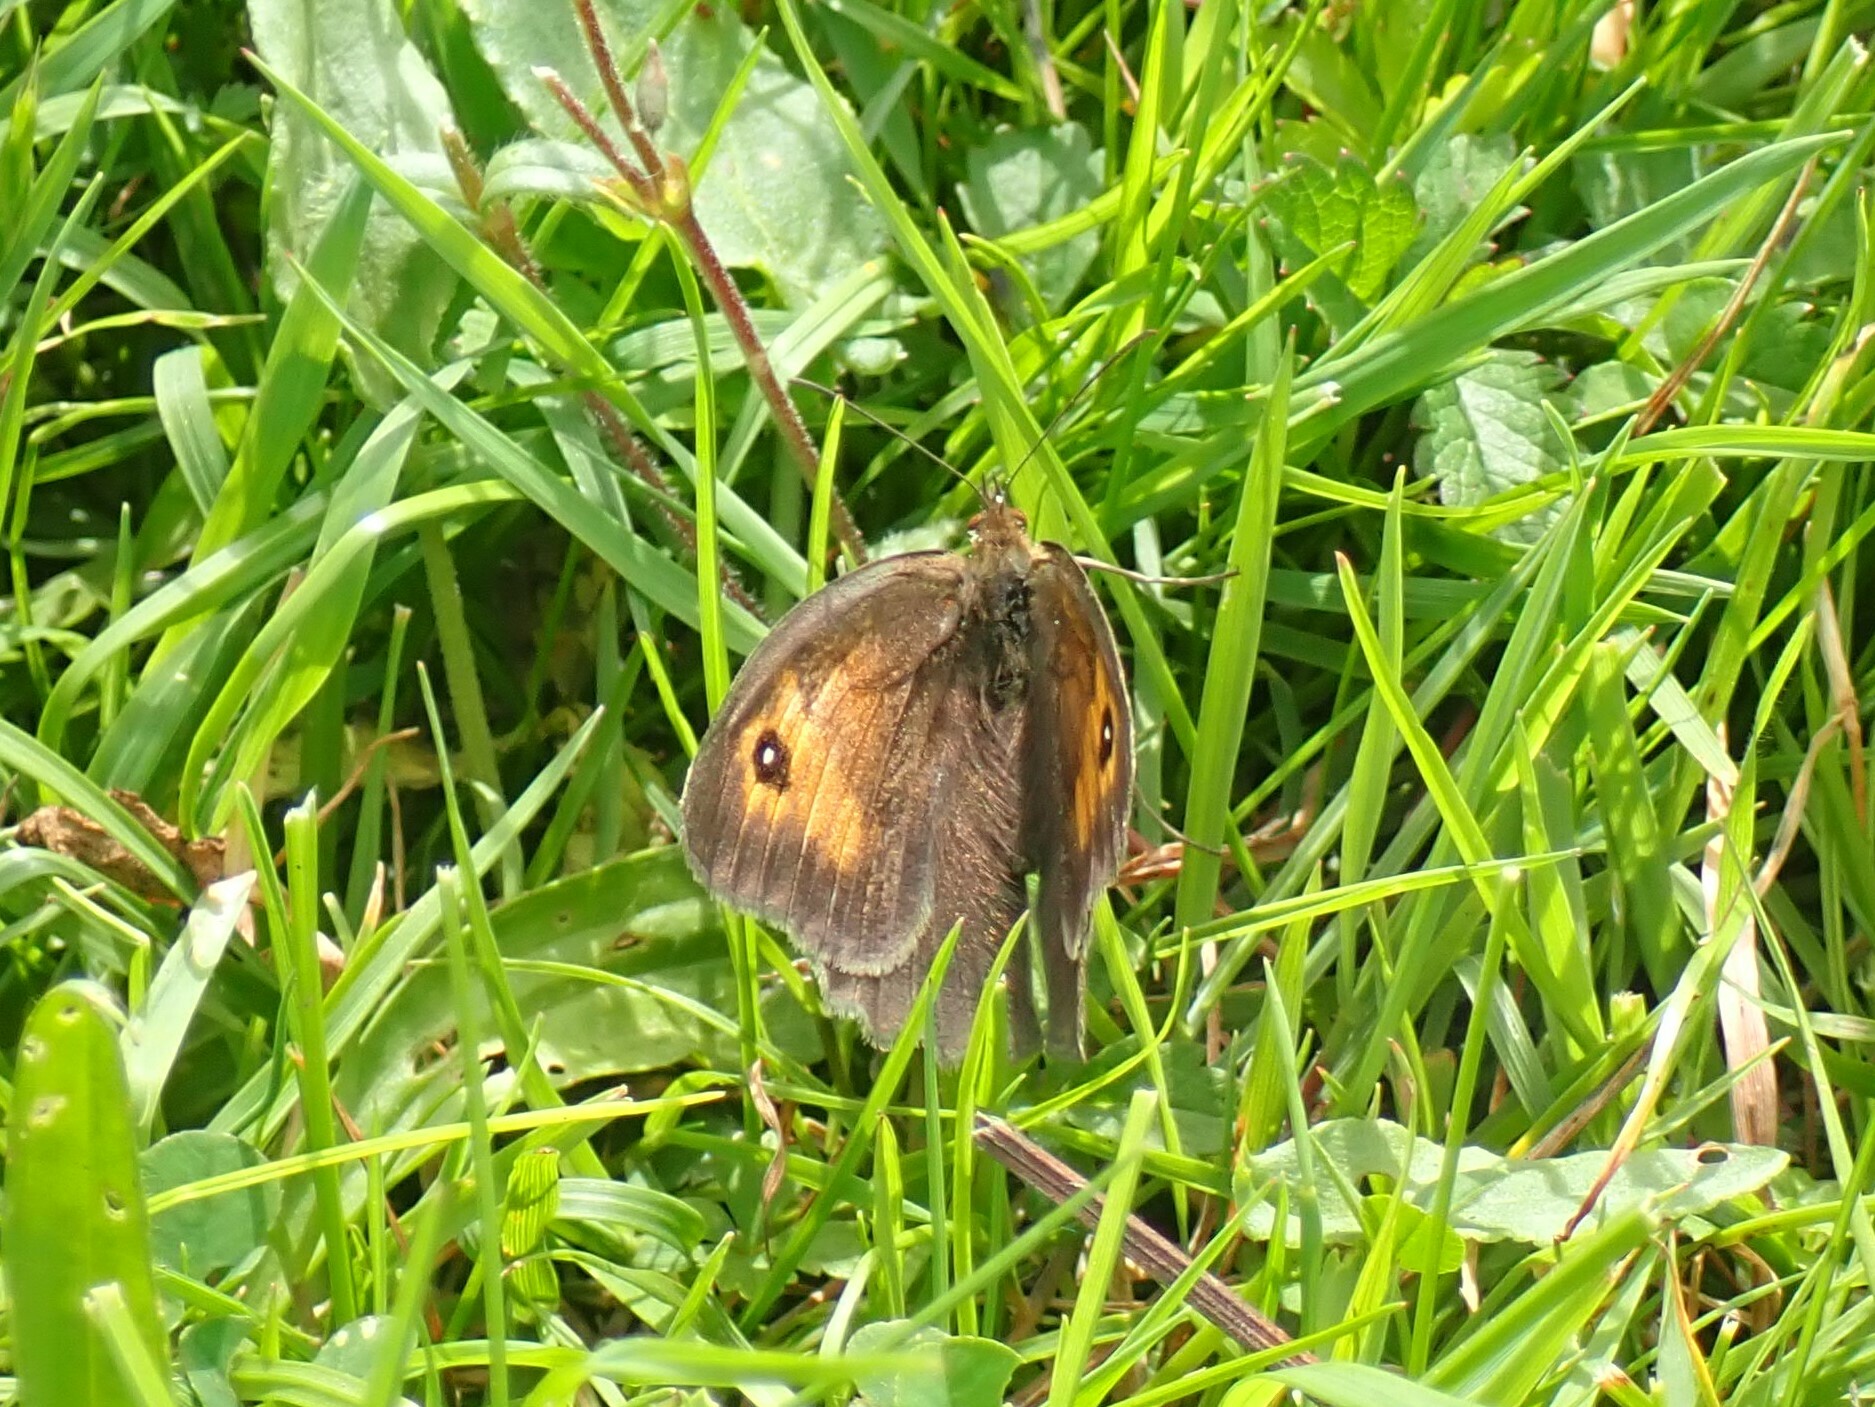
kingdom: Animalia
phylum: Arthropoda
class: Insecta
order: Lepidoptera
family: Nymphalidae
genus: Maniola
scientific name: Maniola jurtina
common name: Meadow brown
